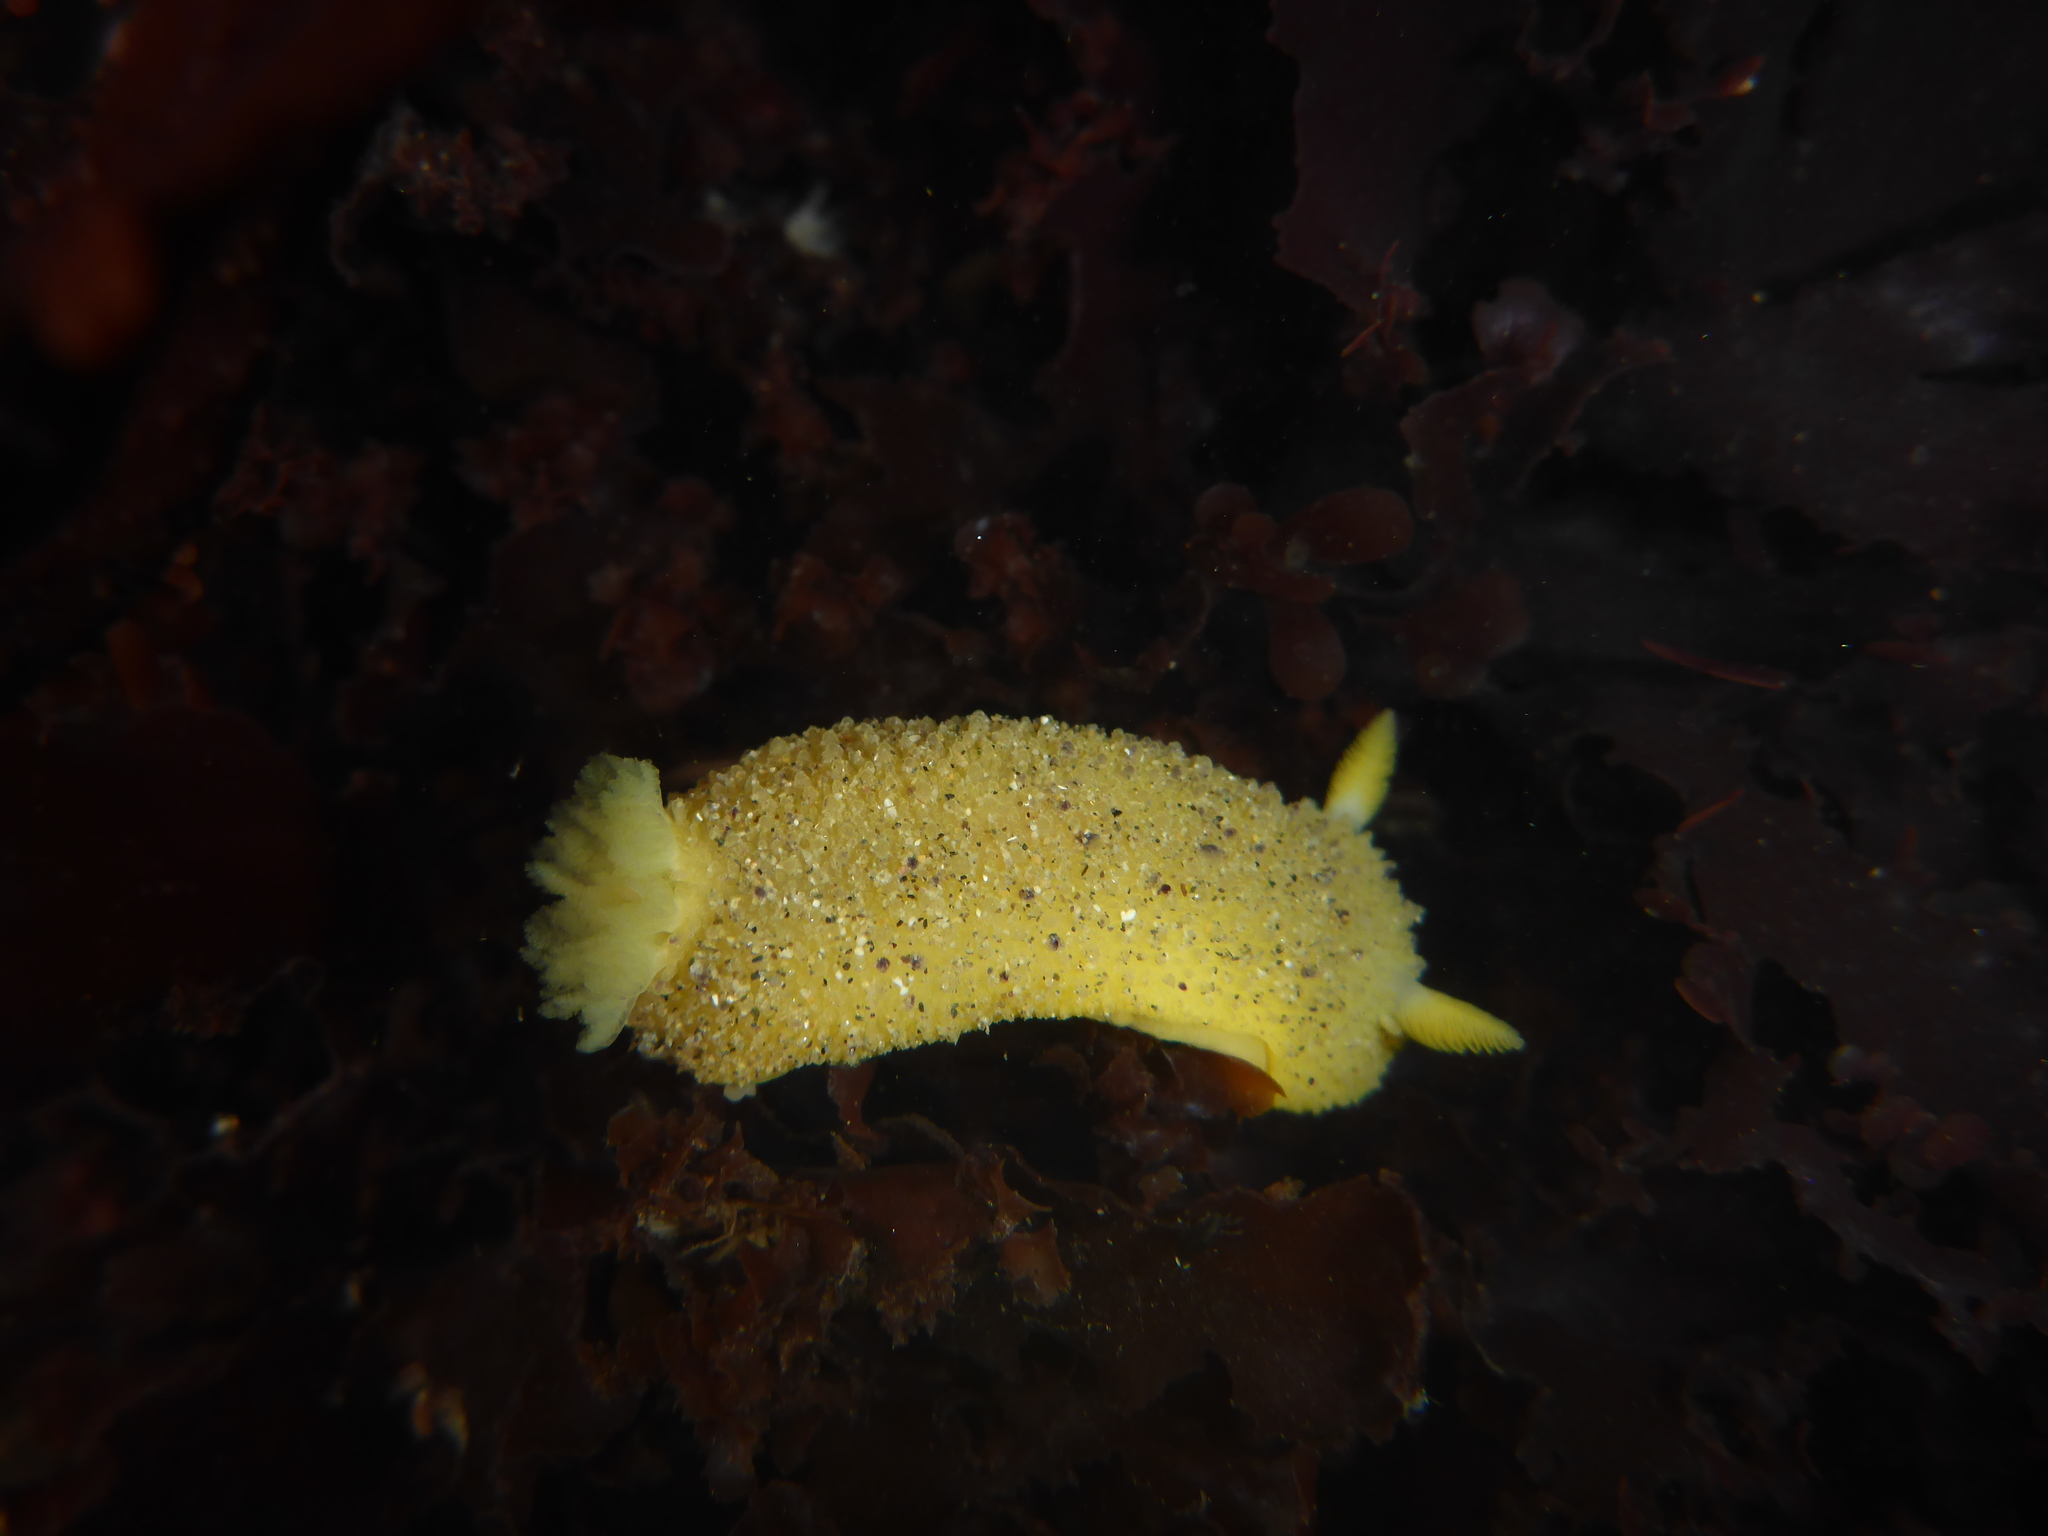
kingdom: Animalia
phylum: Mollusca
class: Gastropoda
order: Nudibranchia
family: Dorididae
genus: Doris
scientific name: Doris montereyensis
